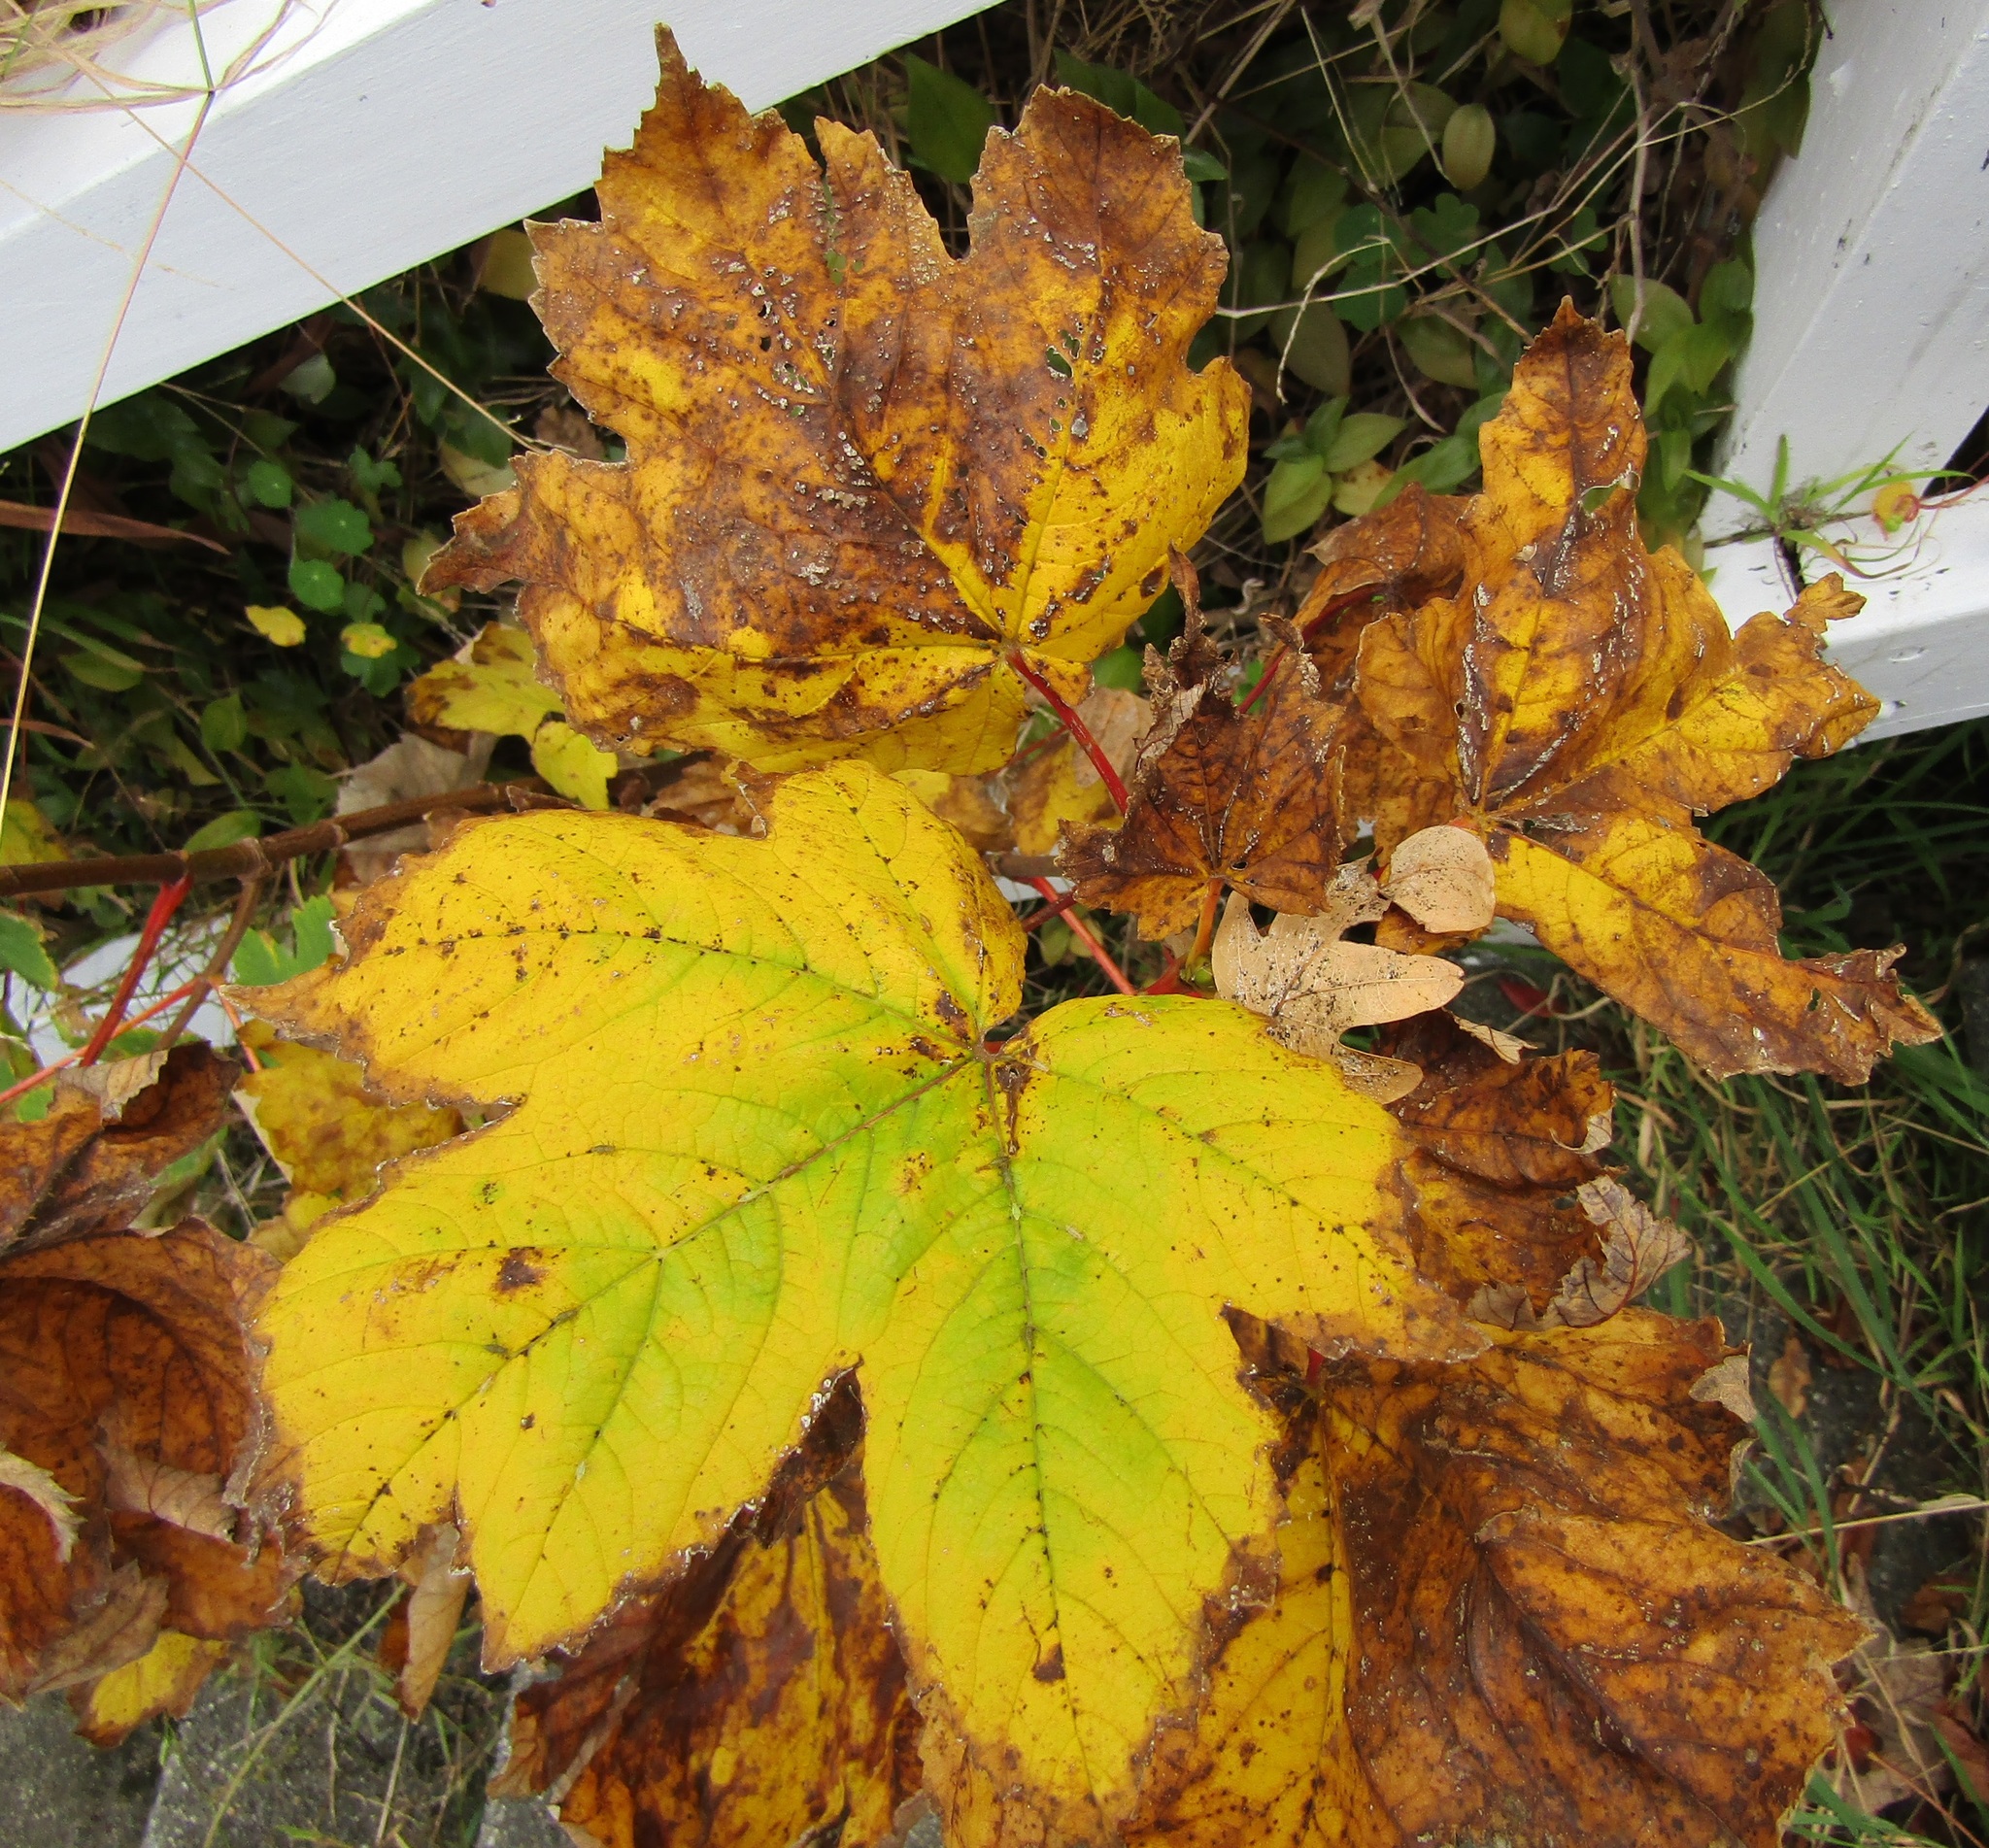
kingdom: Plantae
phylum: Tracheophyta
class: Magnoliopsida
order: Sapindales
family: Sapindaceae
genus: Acer
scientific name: Acer pseudoplatanus
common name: Sycamore
